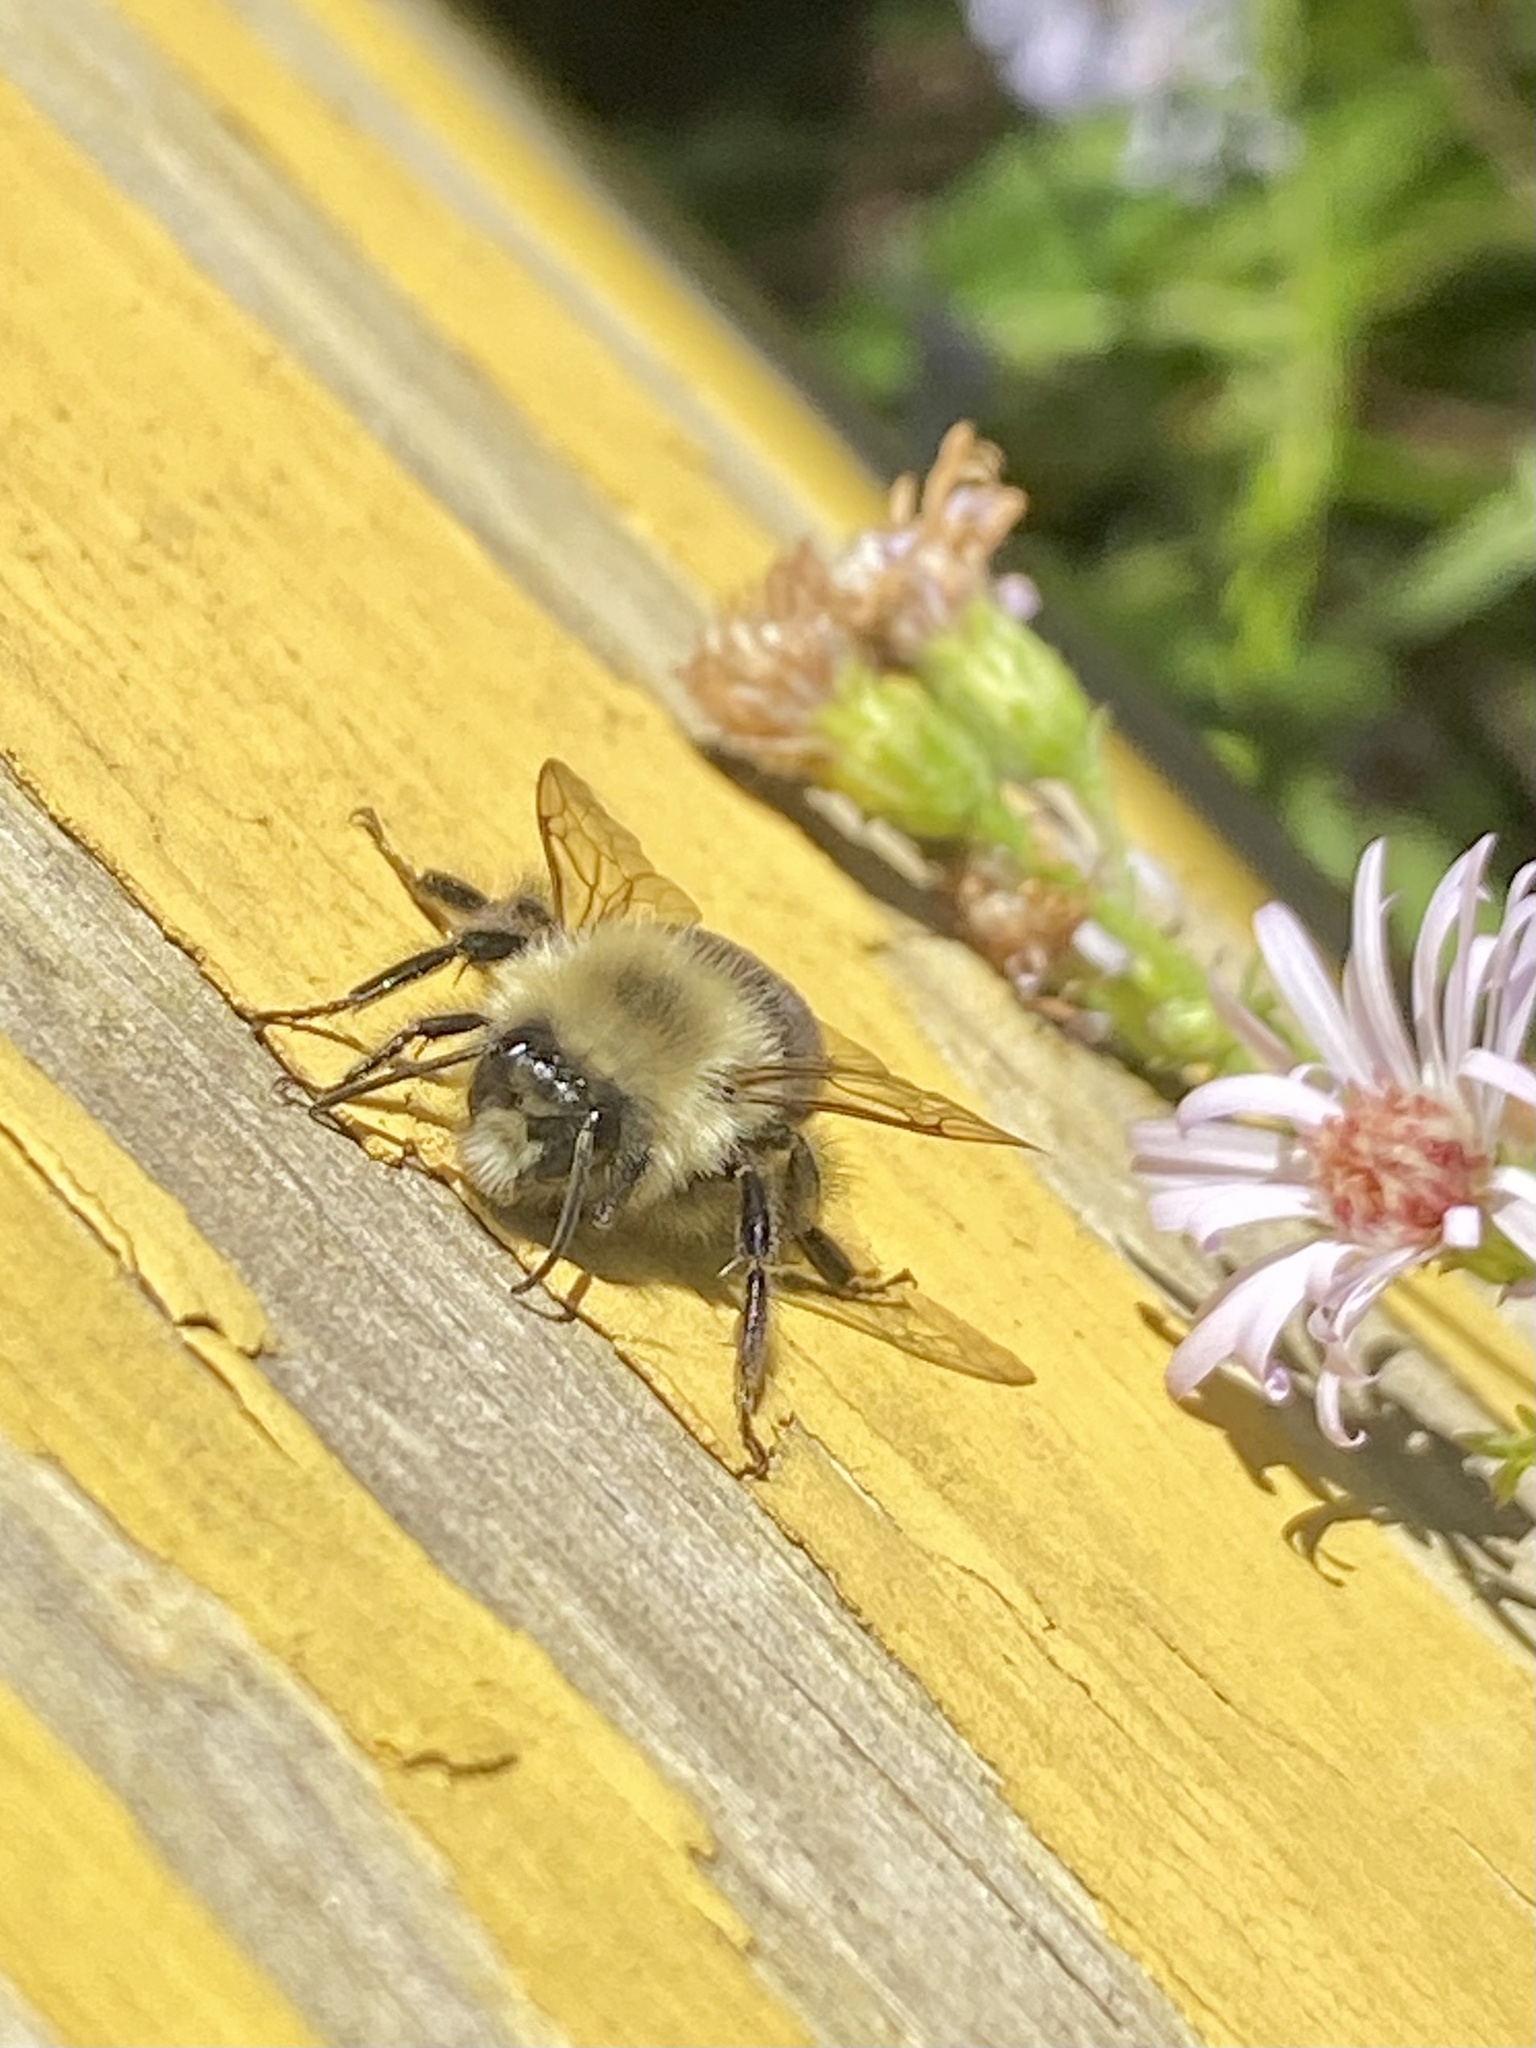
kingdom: Animalia
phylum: Arthropoda
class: Insecta
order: Hymenoptera
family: Apidae
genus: Bombus
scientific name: Bombus impatiens
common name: Common eastern bumble bee
